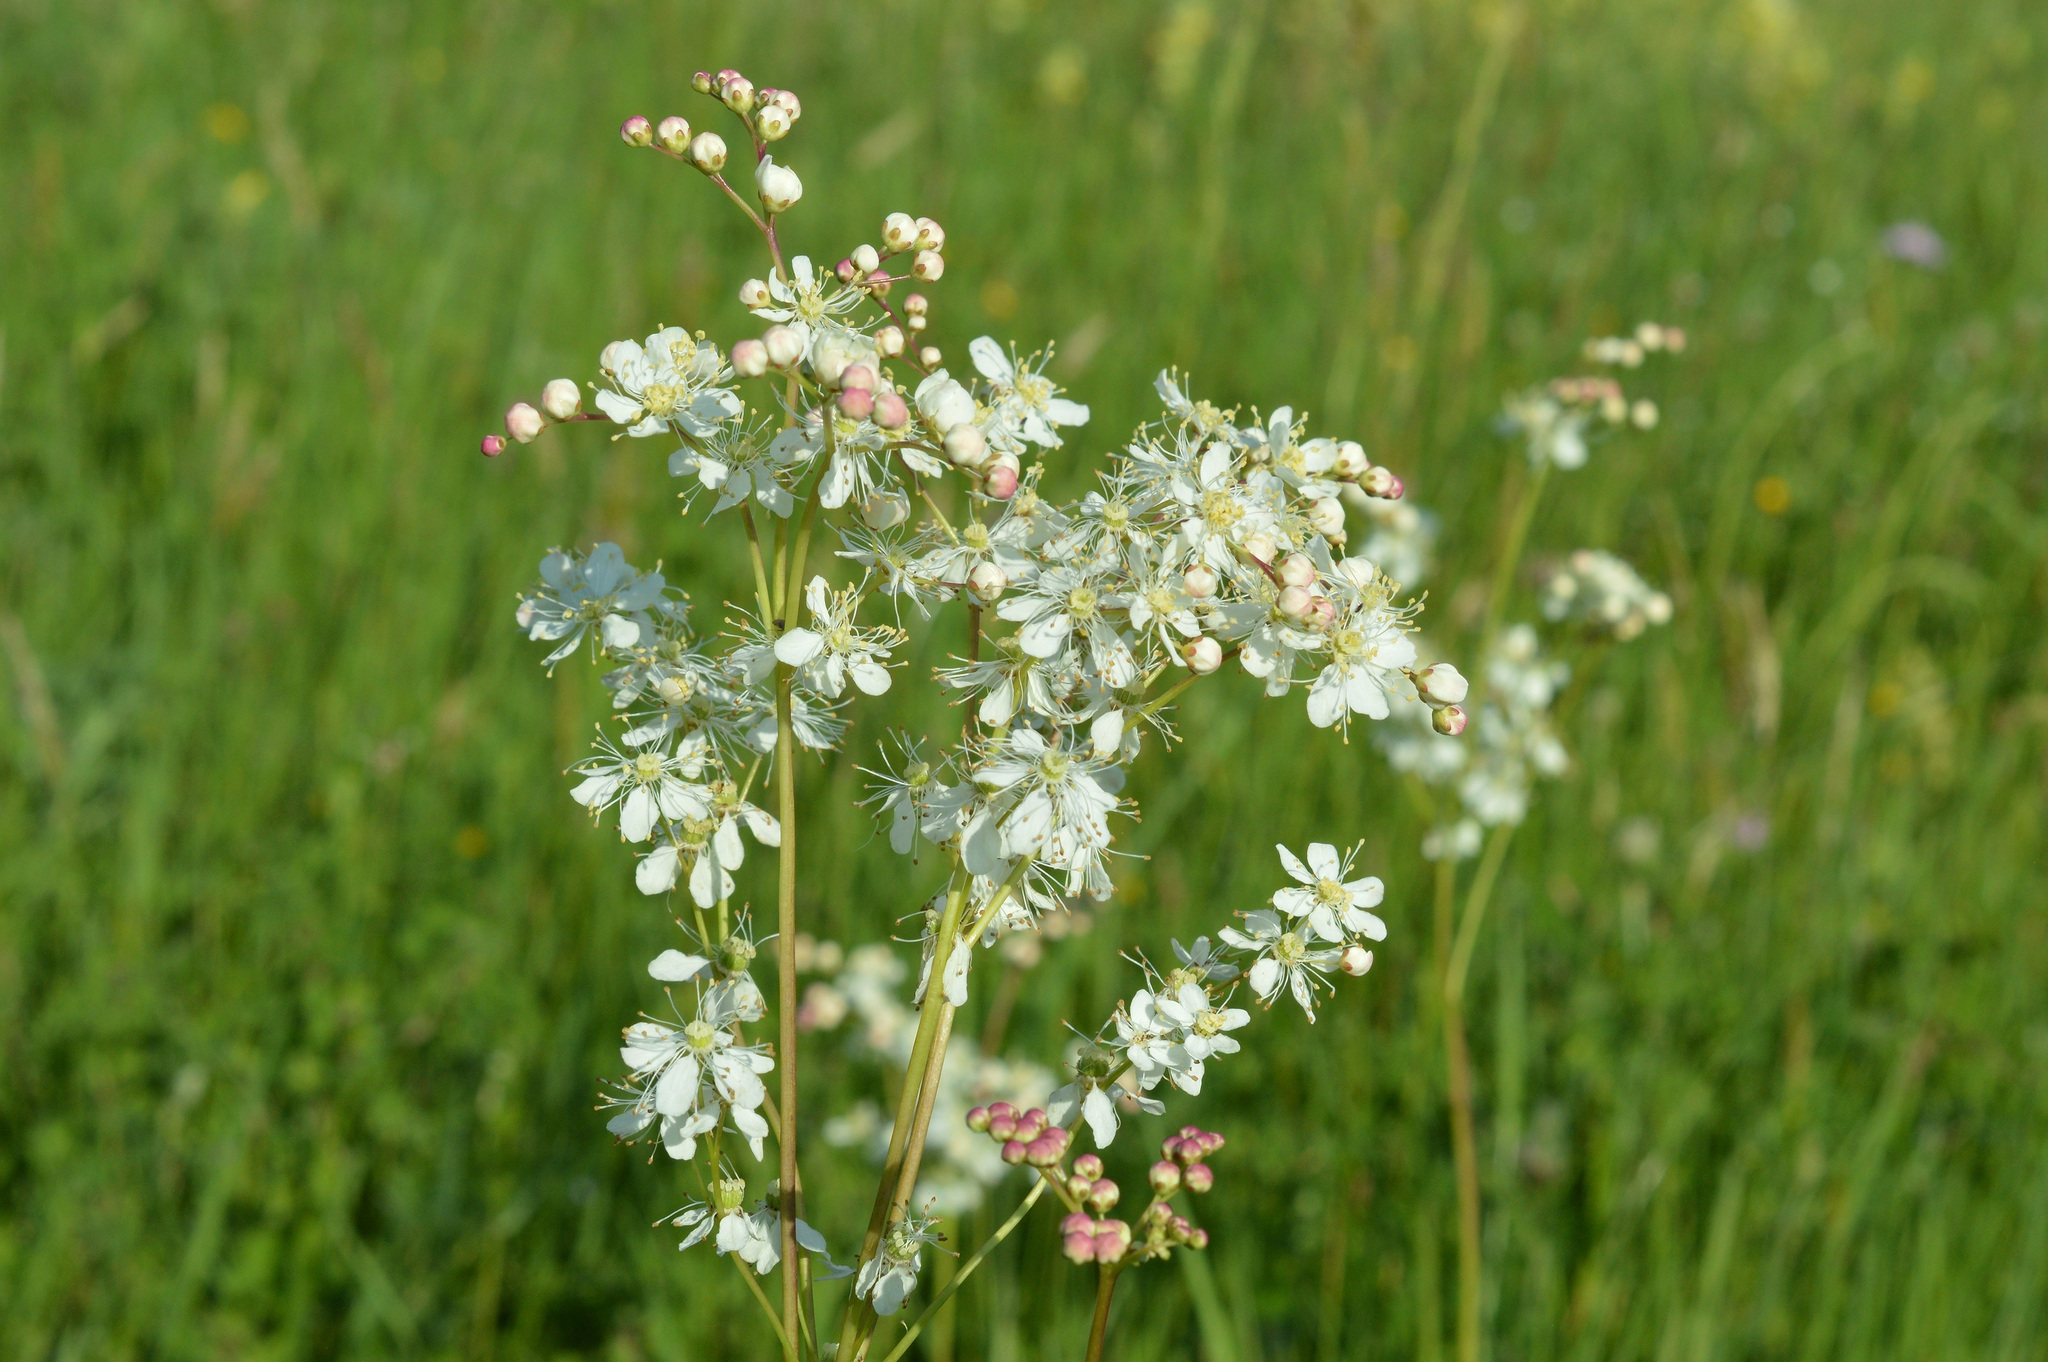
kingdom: Plantae
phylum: Tracheophyta
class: Magnoliopsida
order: Rosales
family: Rosaceae
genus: Filipendula
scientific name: Filipendula vulgaris
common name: Dropwort
